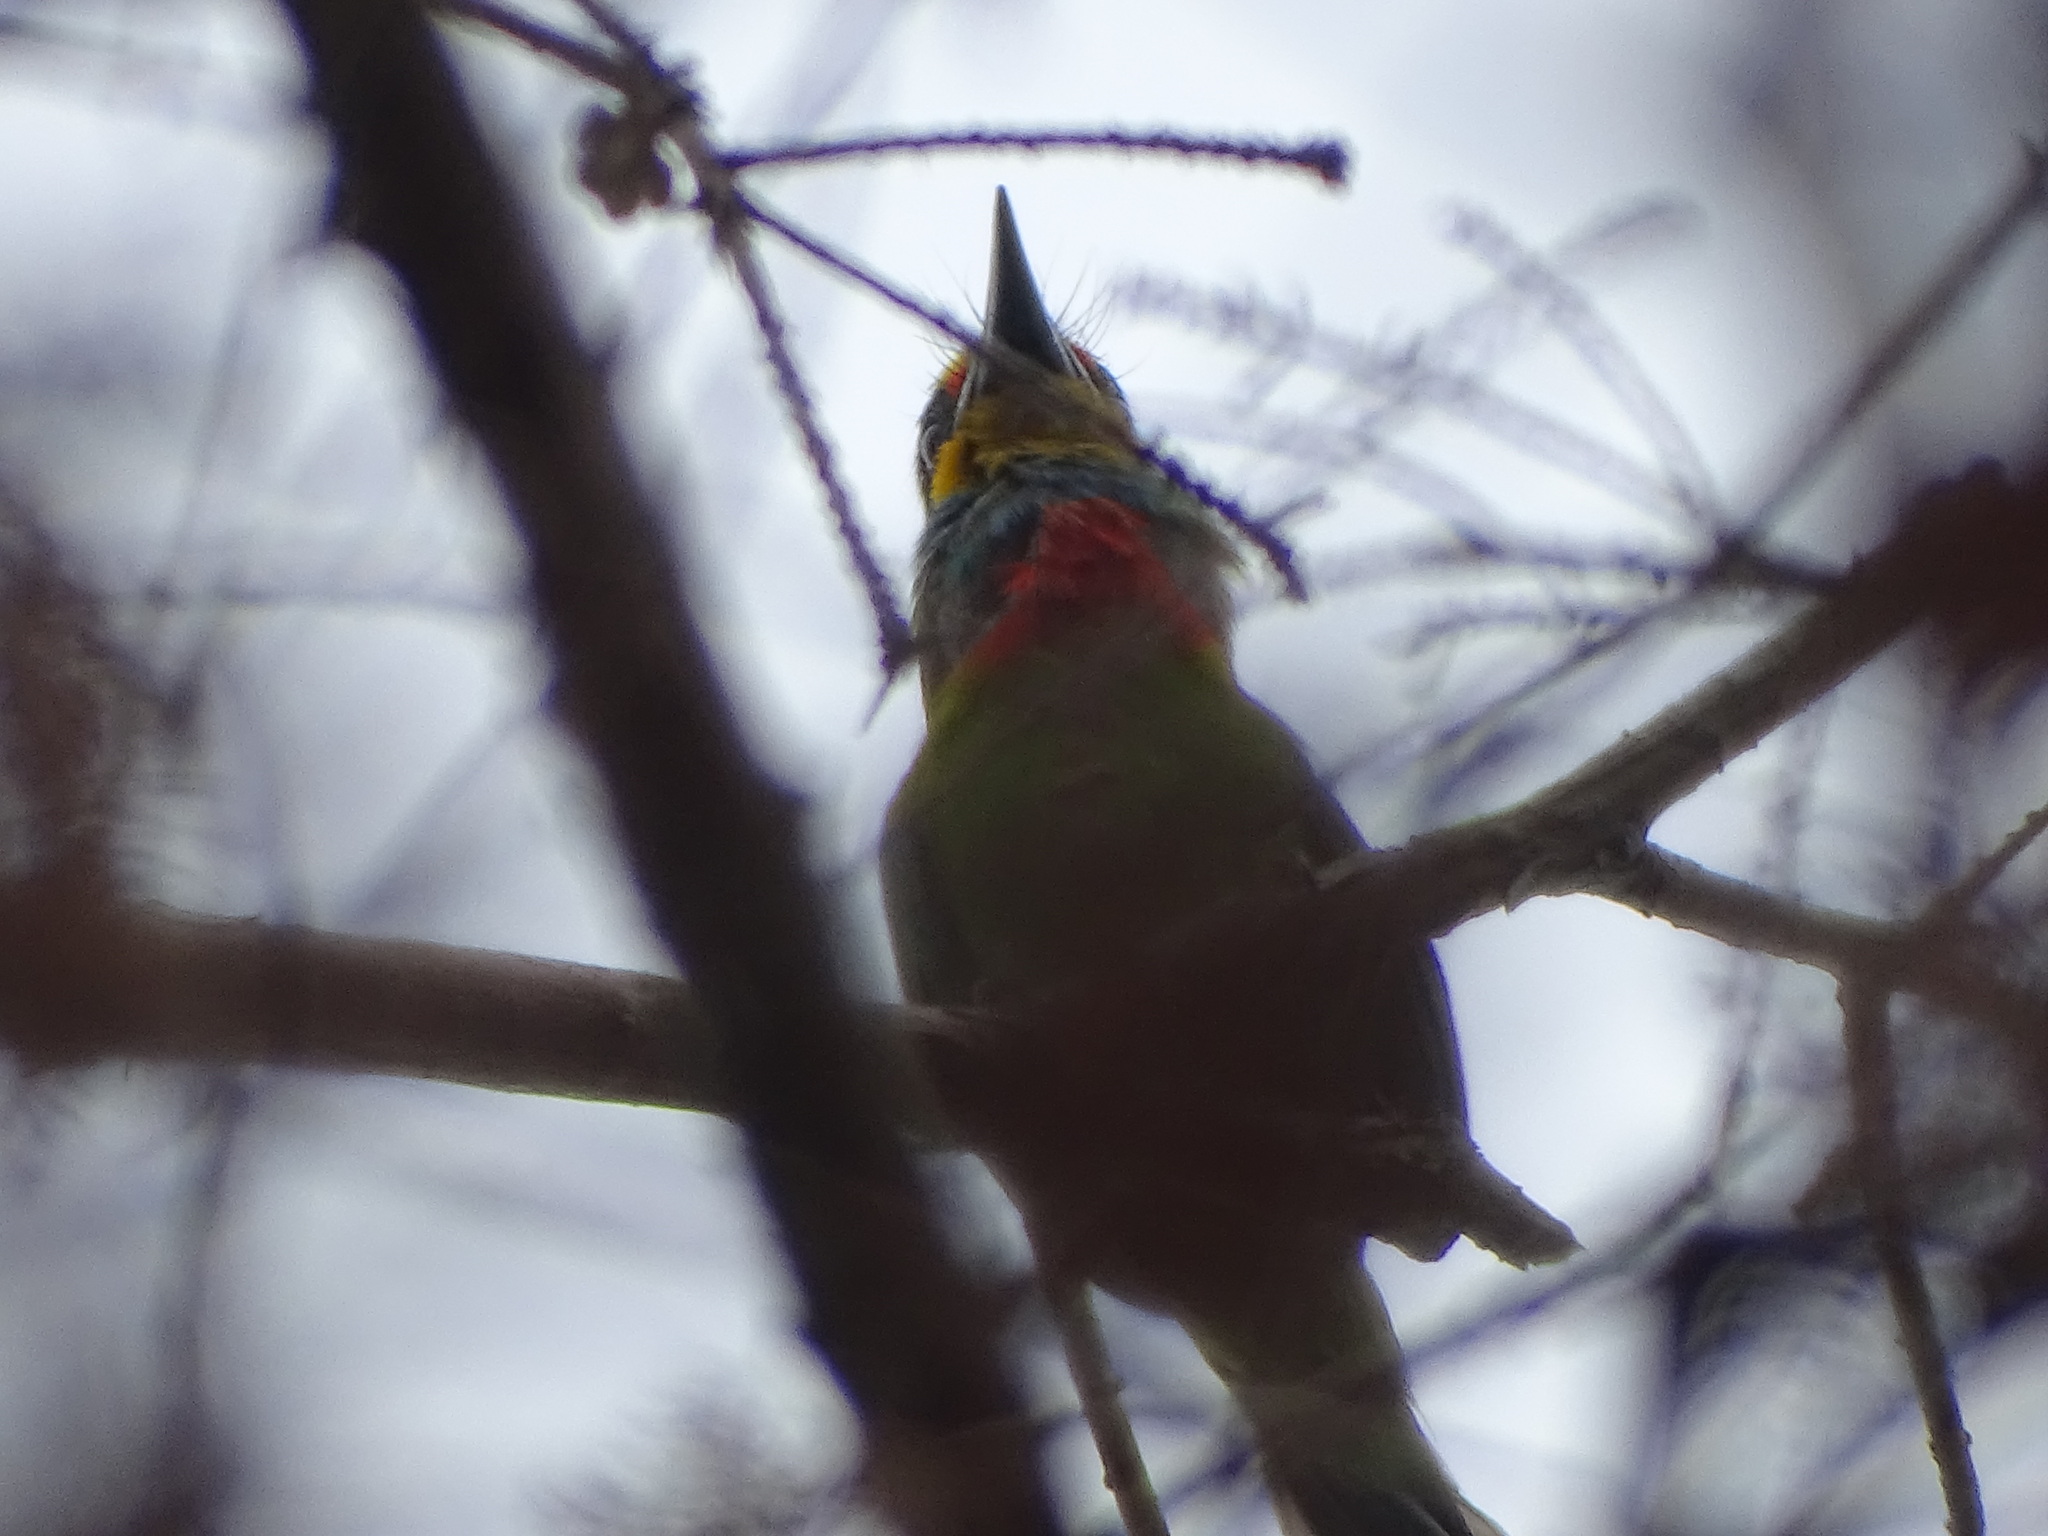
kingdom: Animalia
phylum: Chordata
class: Aves
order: Piciformes
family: Megalaimidae
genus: Psilopogon
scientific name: Psilopogon nuchalis
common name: Taiwan barbet
